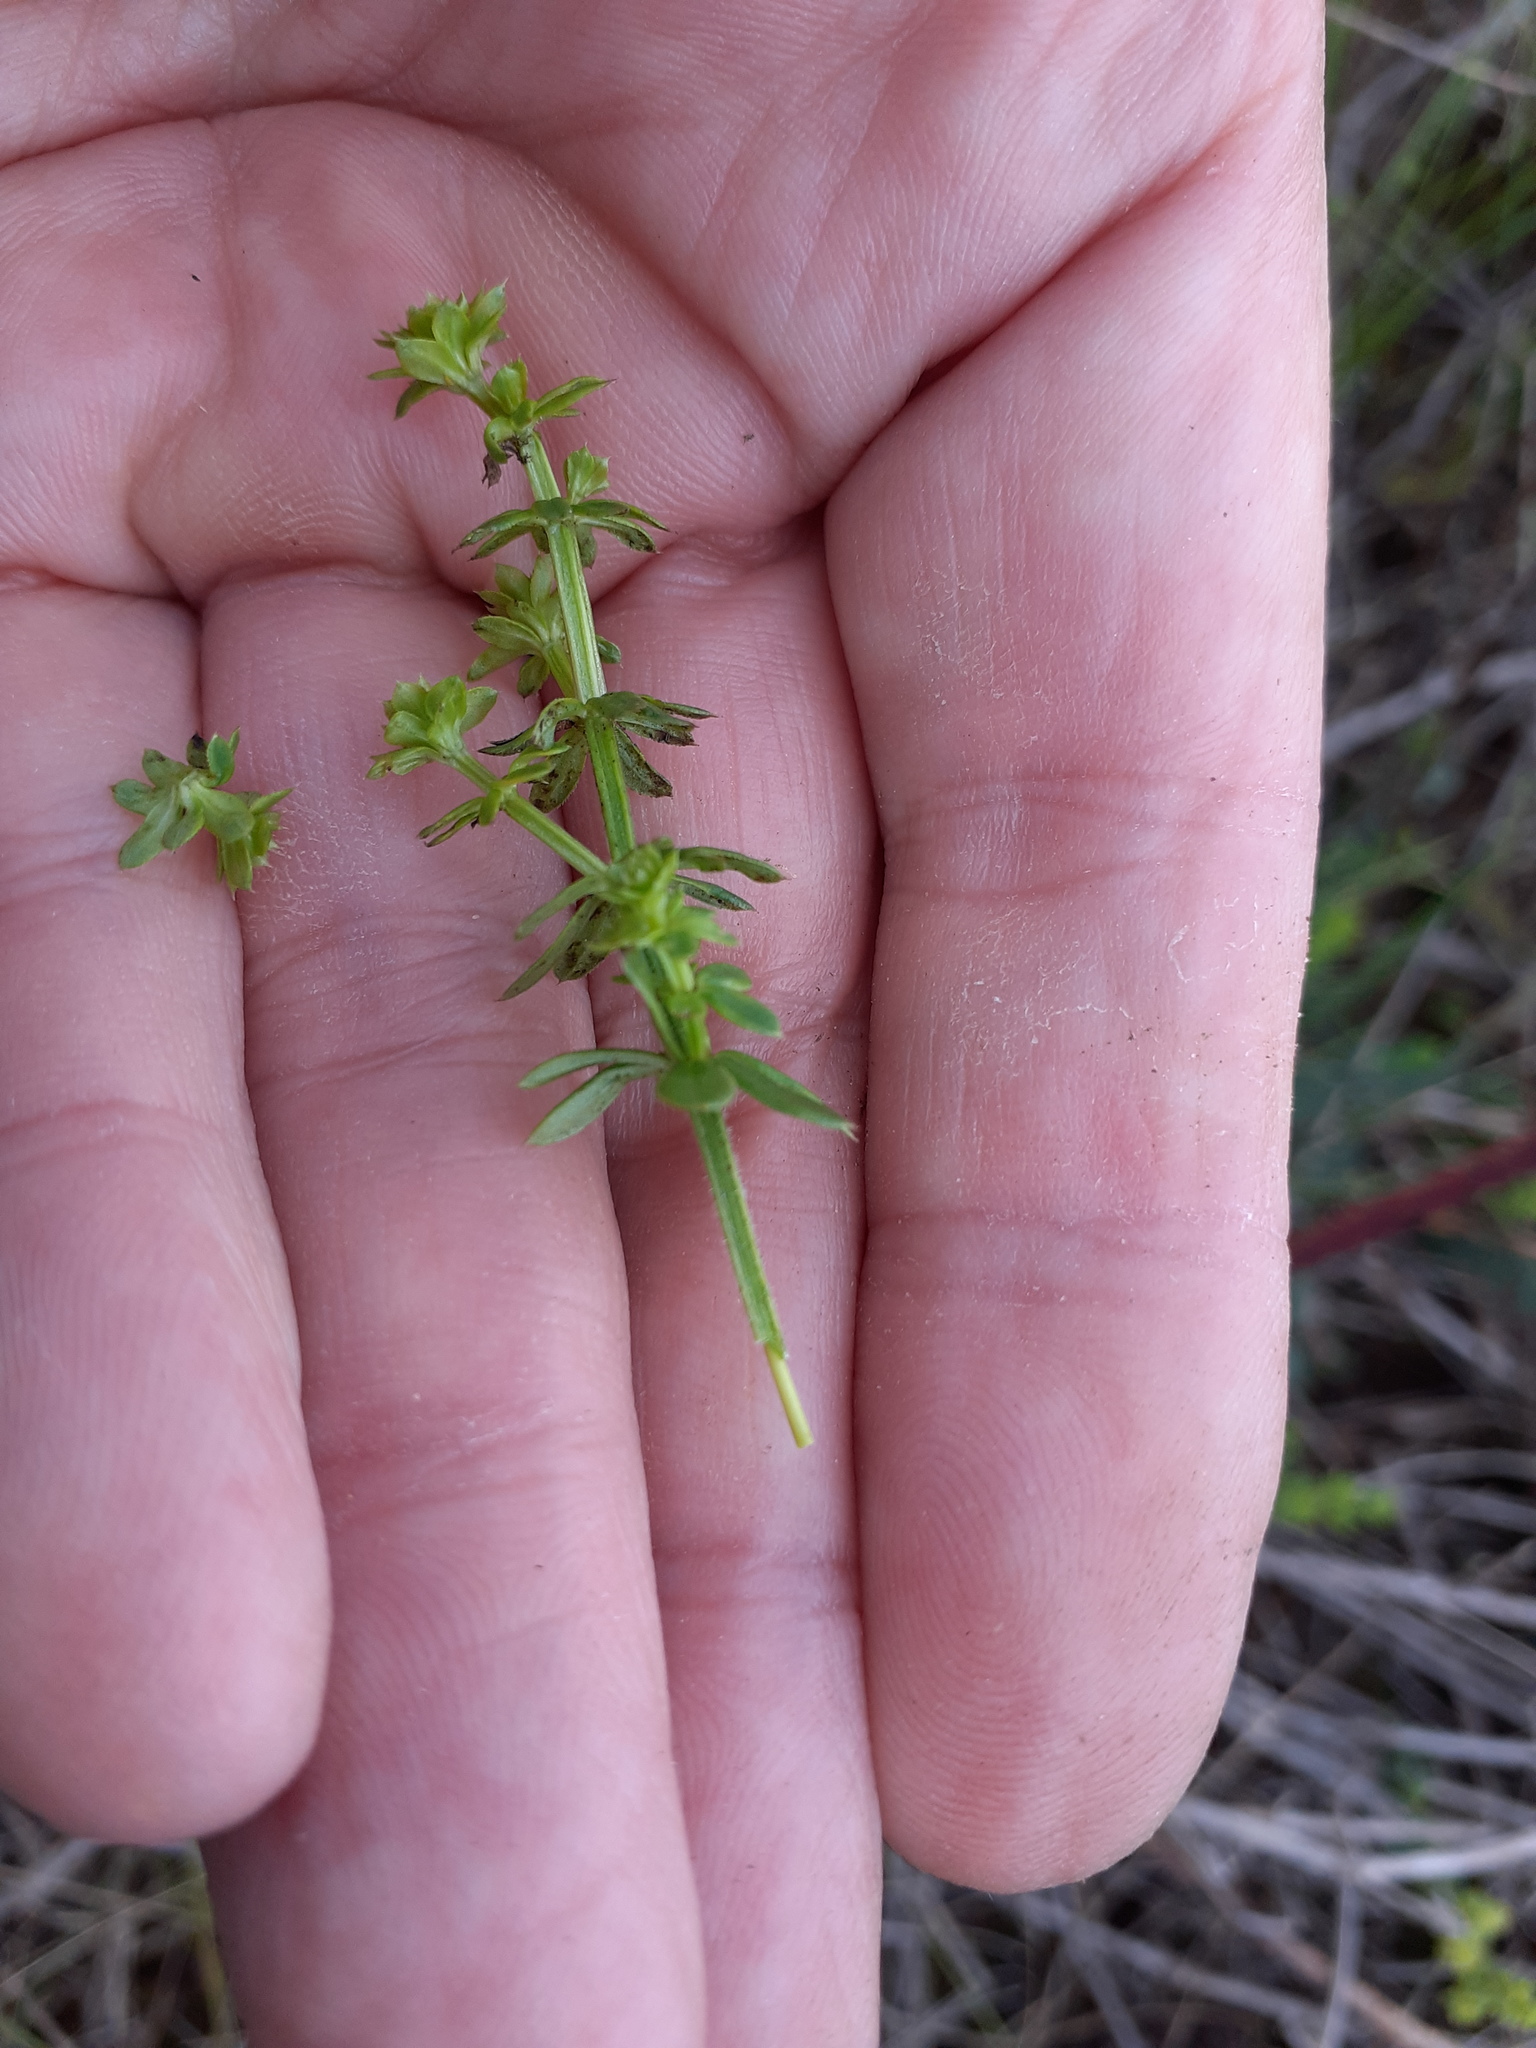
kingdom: Plantae
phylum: Tracheophyta
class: Magnoliopsida
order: Gentianales
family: Rubiaceae
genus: Galium
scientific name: Galium album
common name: White bedstraw
